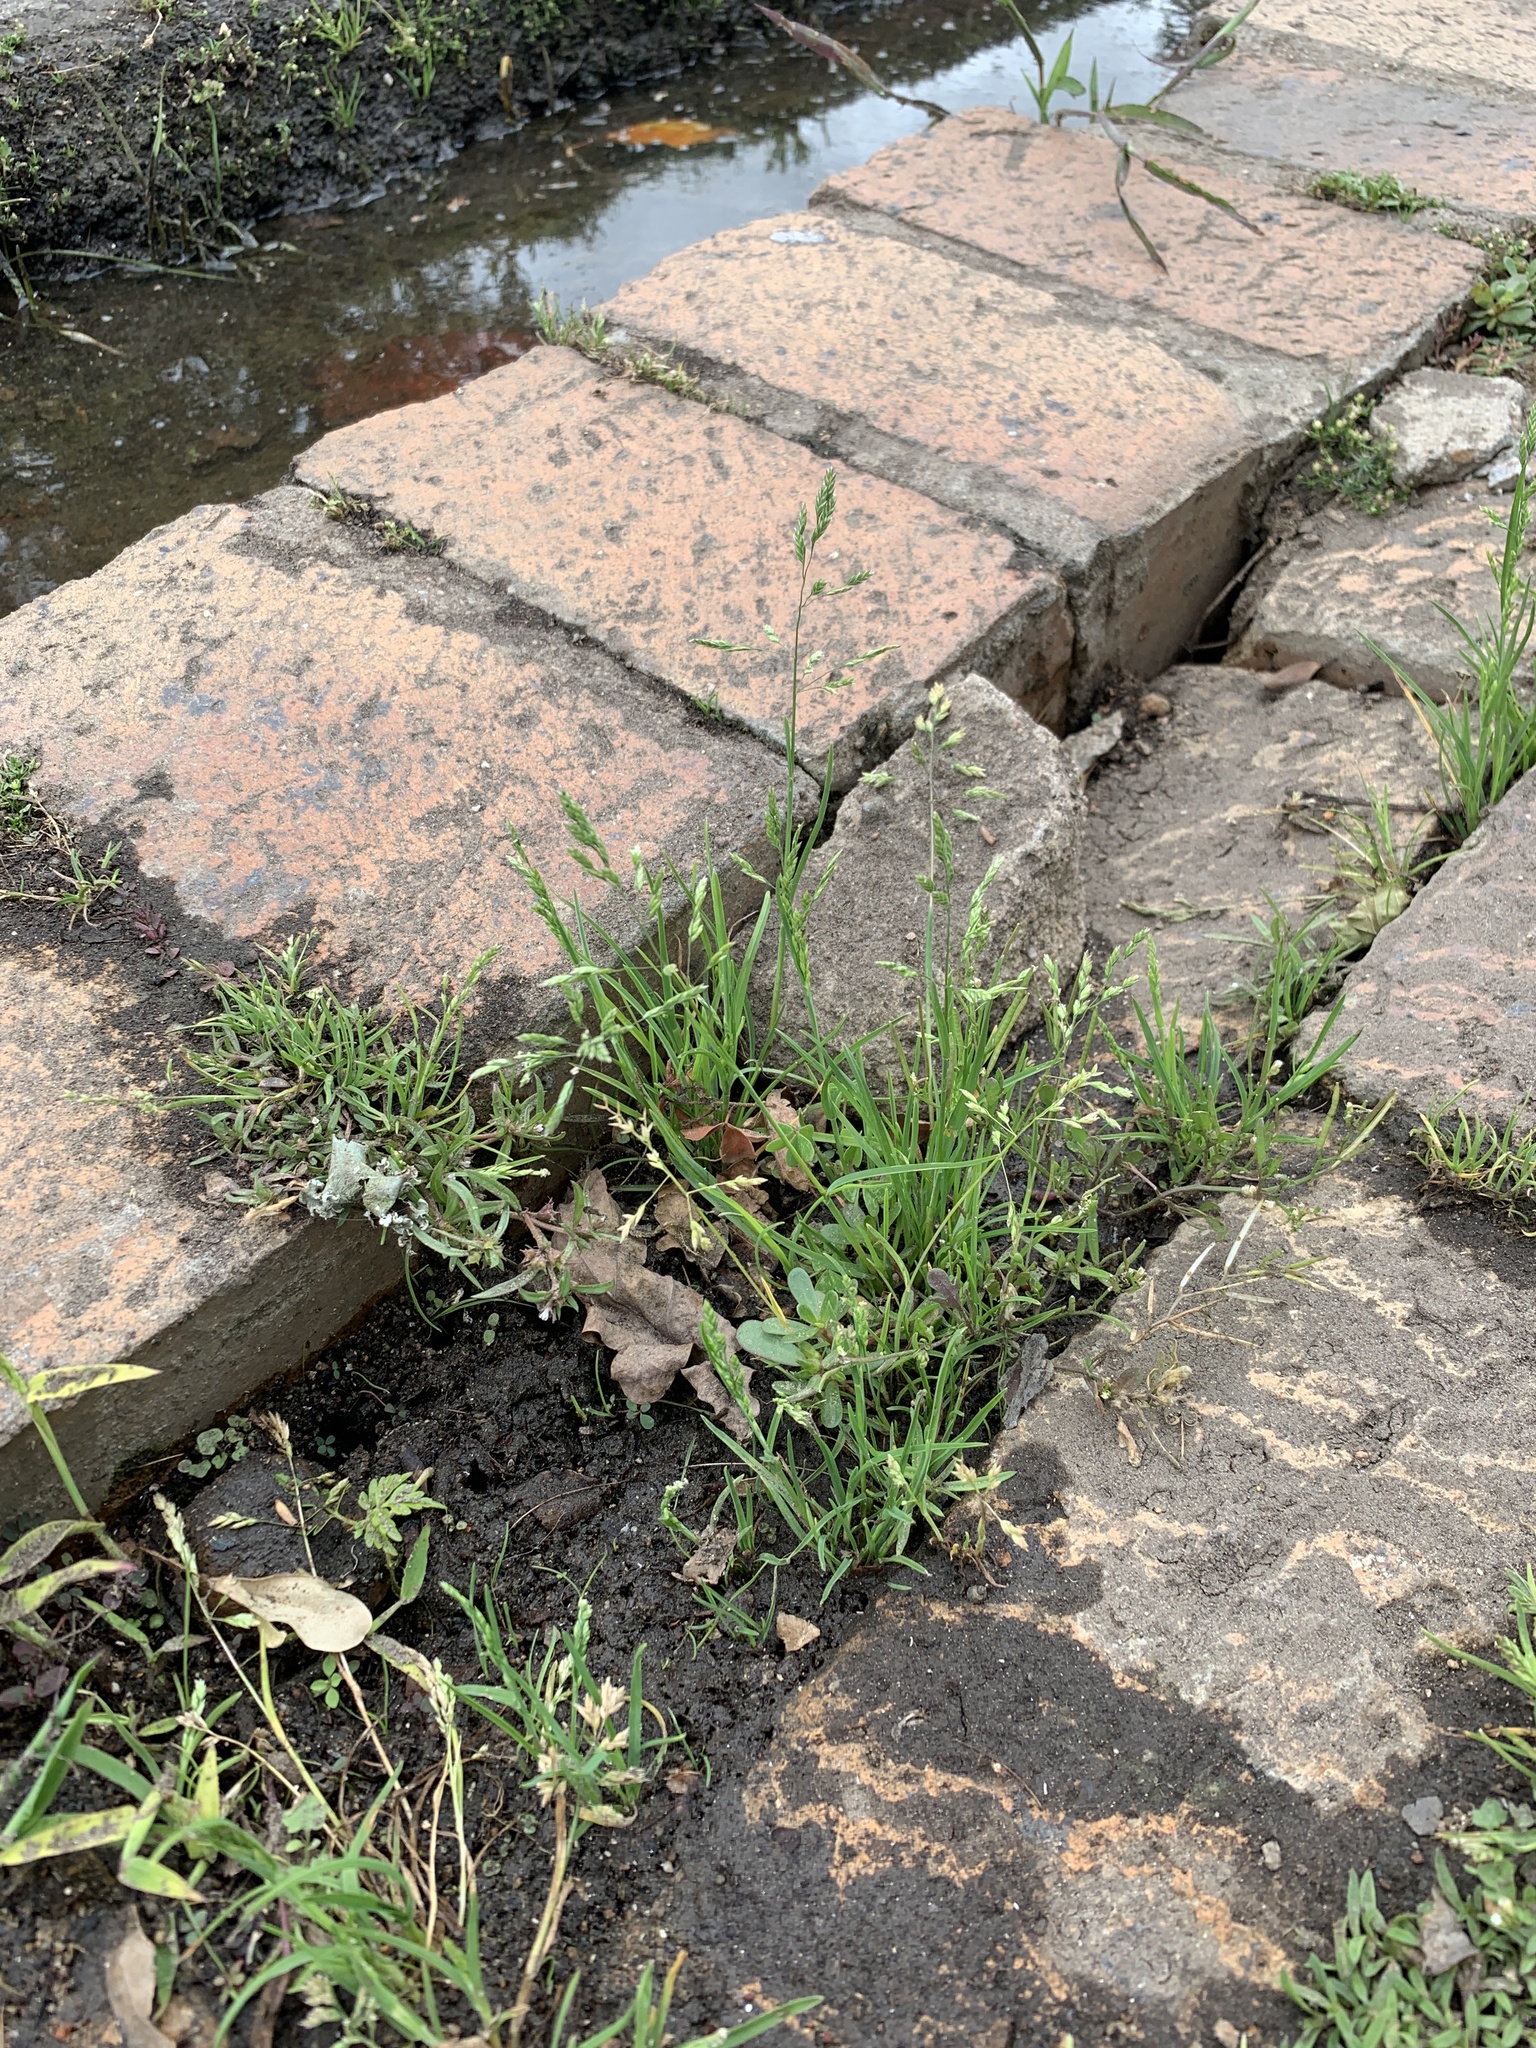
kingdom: Plantae
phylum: Tracheophyta
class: Liliopsida
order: Poales
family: Poaceae
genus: Poa
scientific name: Poa annua
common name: Annual bluegrass
